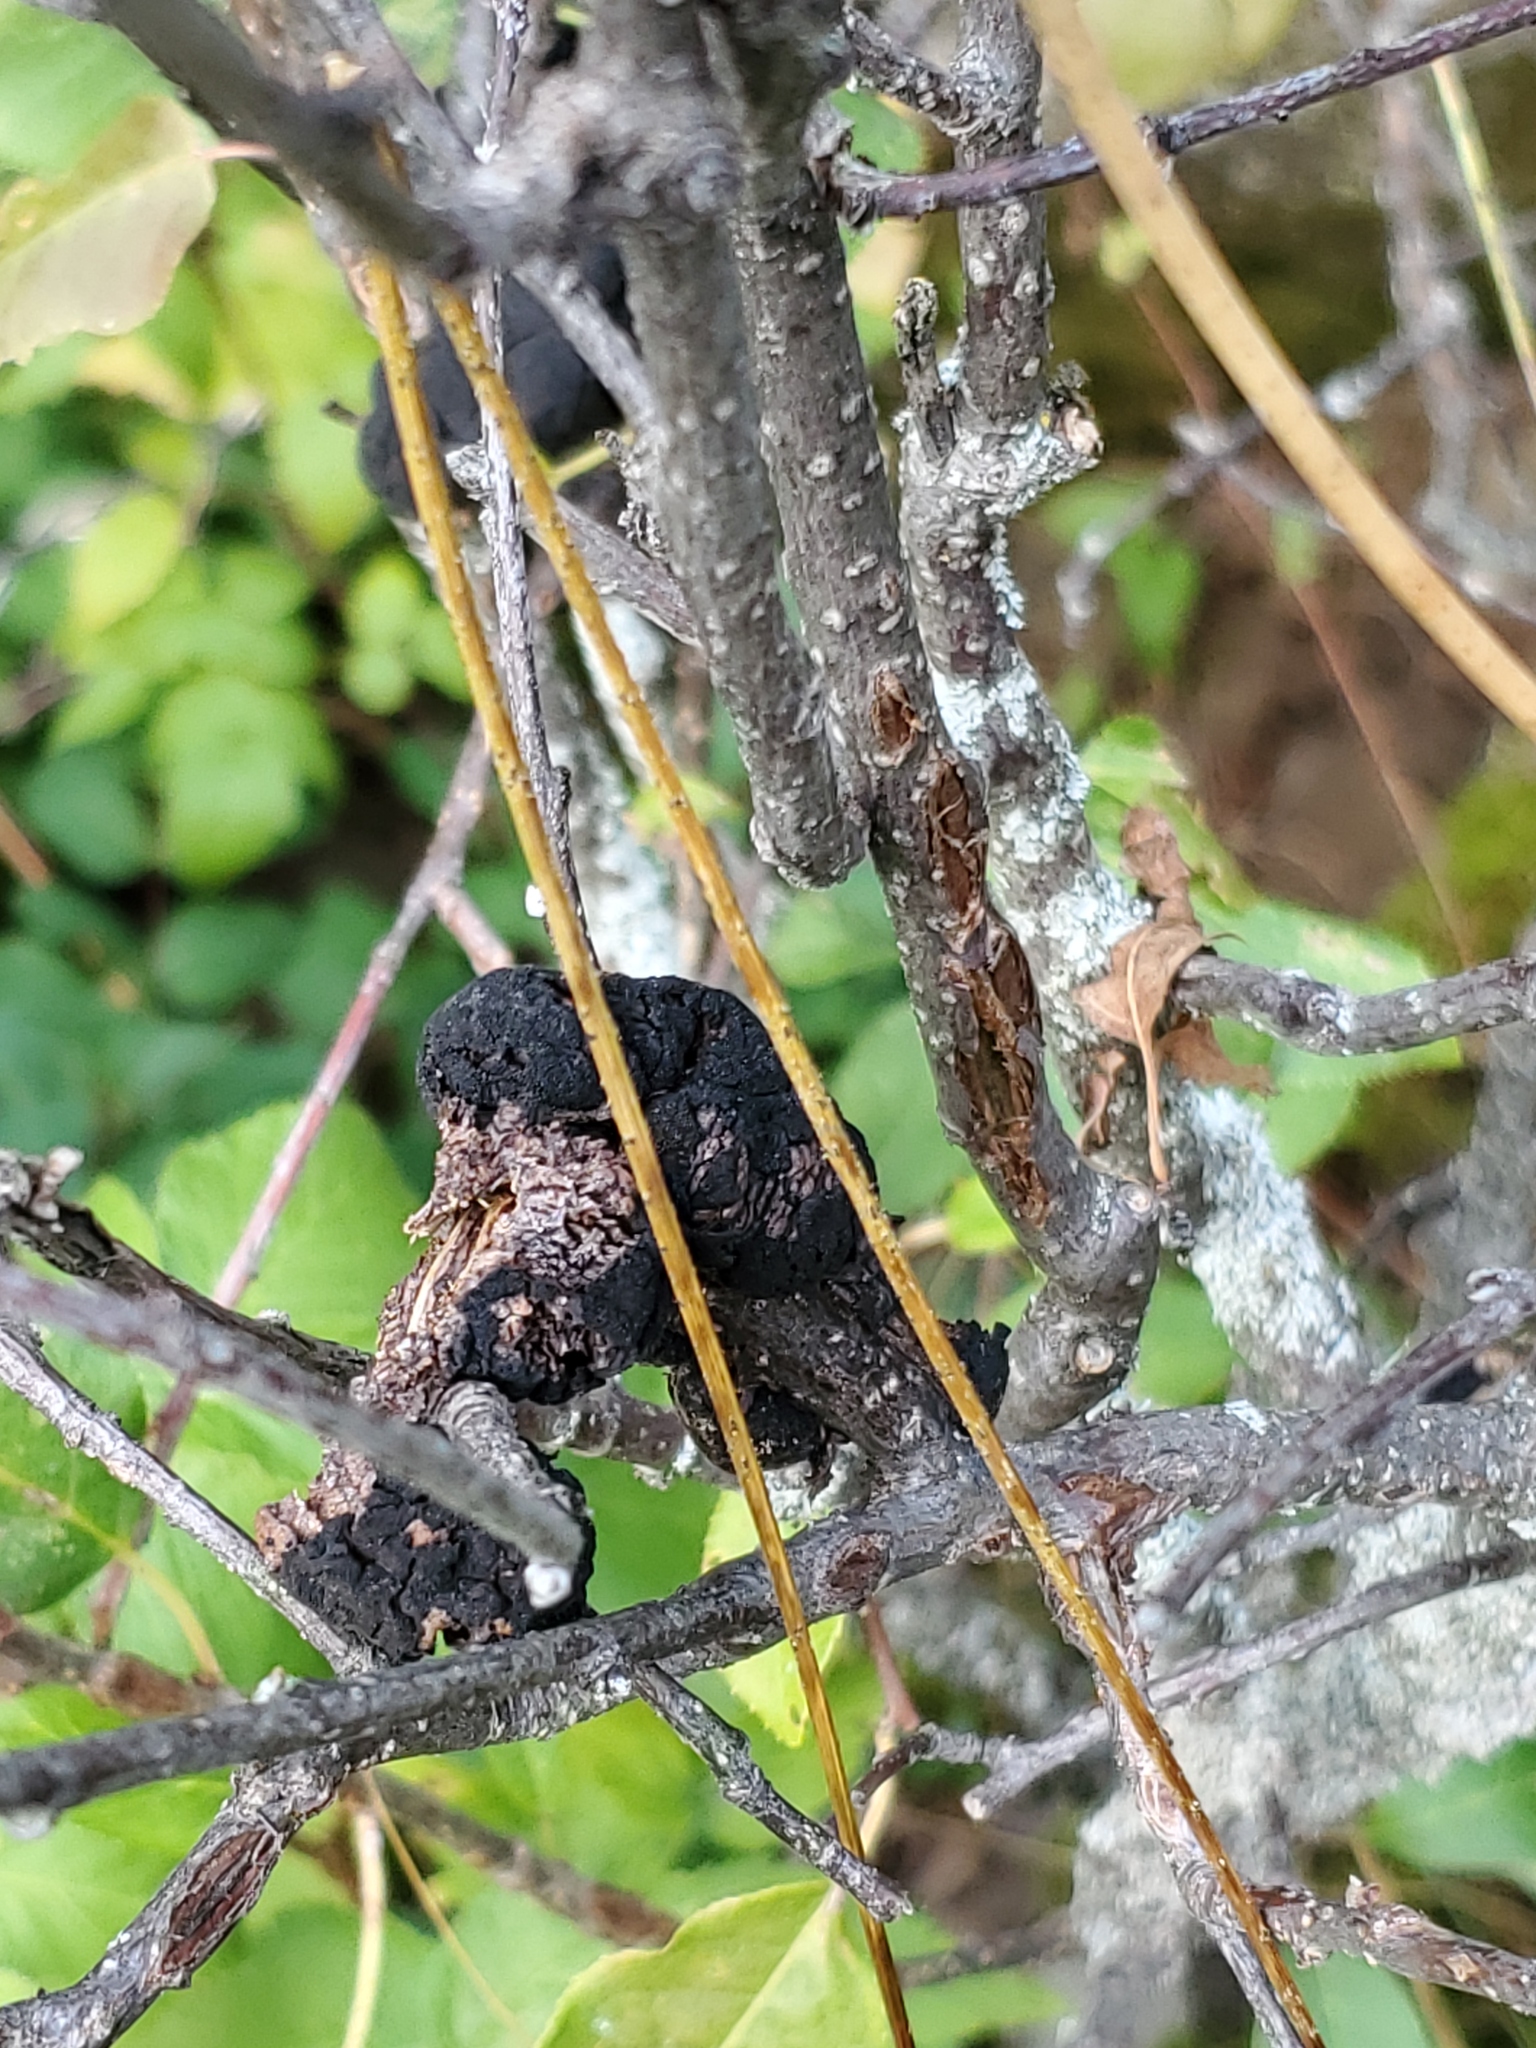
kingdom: Fungi
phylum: Ascomycota
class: Dothideomycetes
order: Venturiales
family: Venturiaceae
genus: Apiosporina
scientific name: Apiosporina morbosa
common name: Black knot
